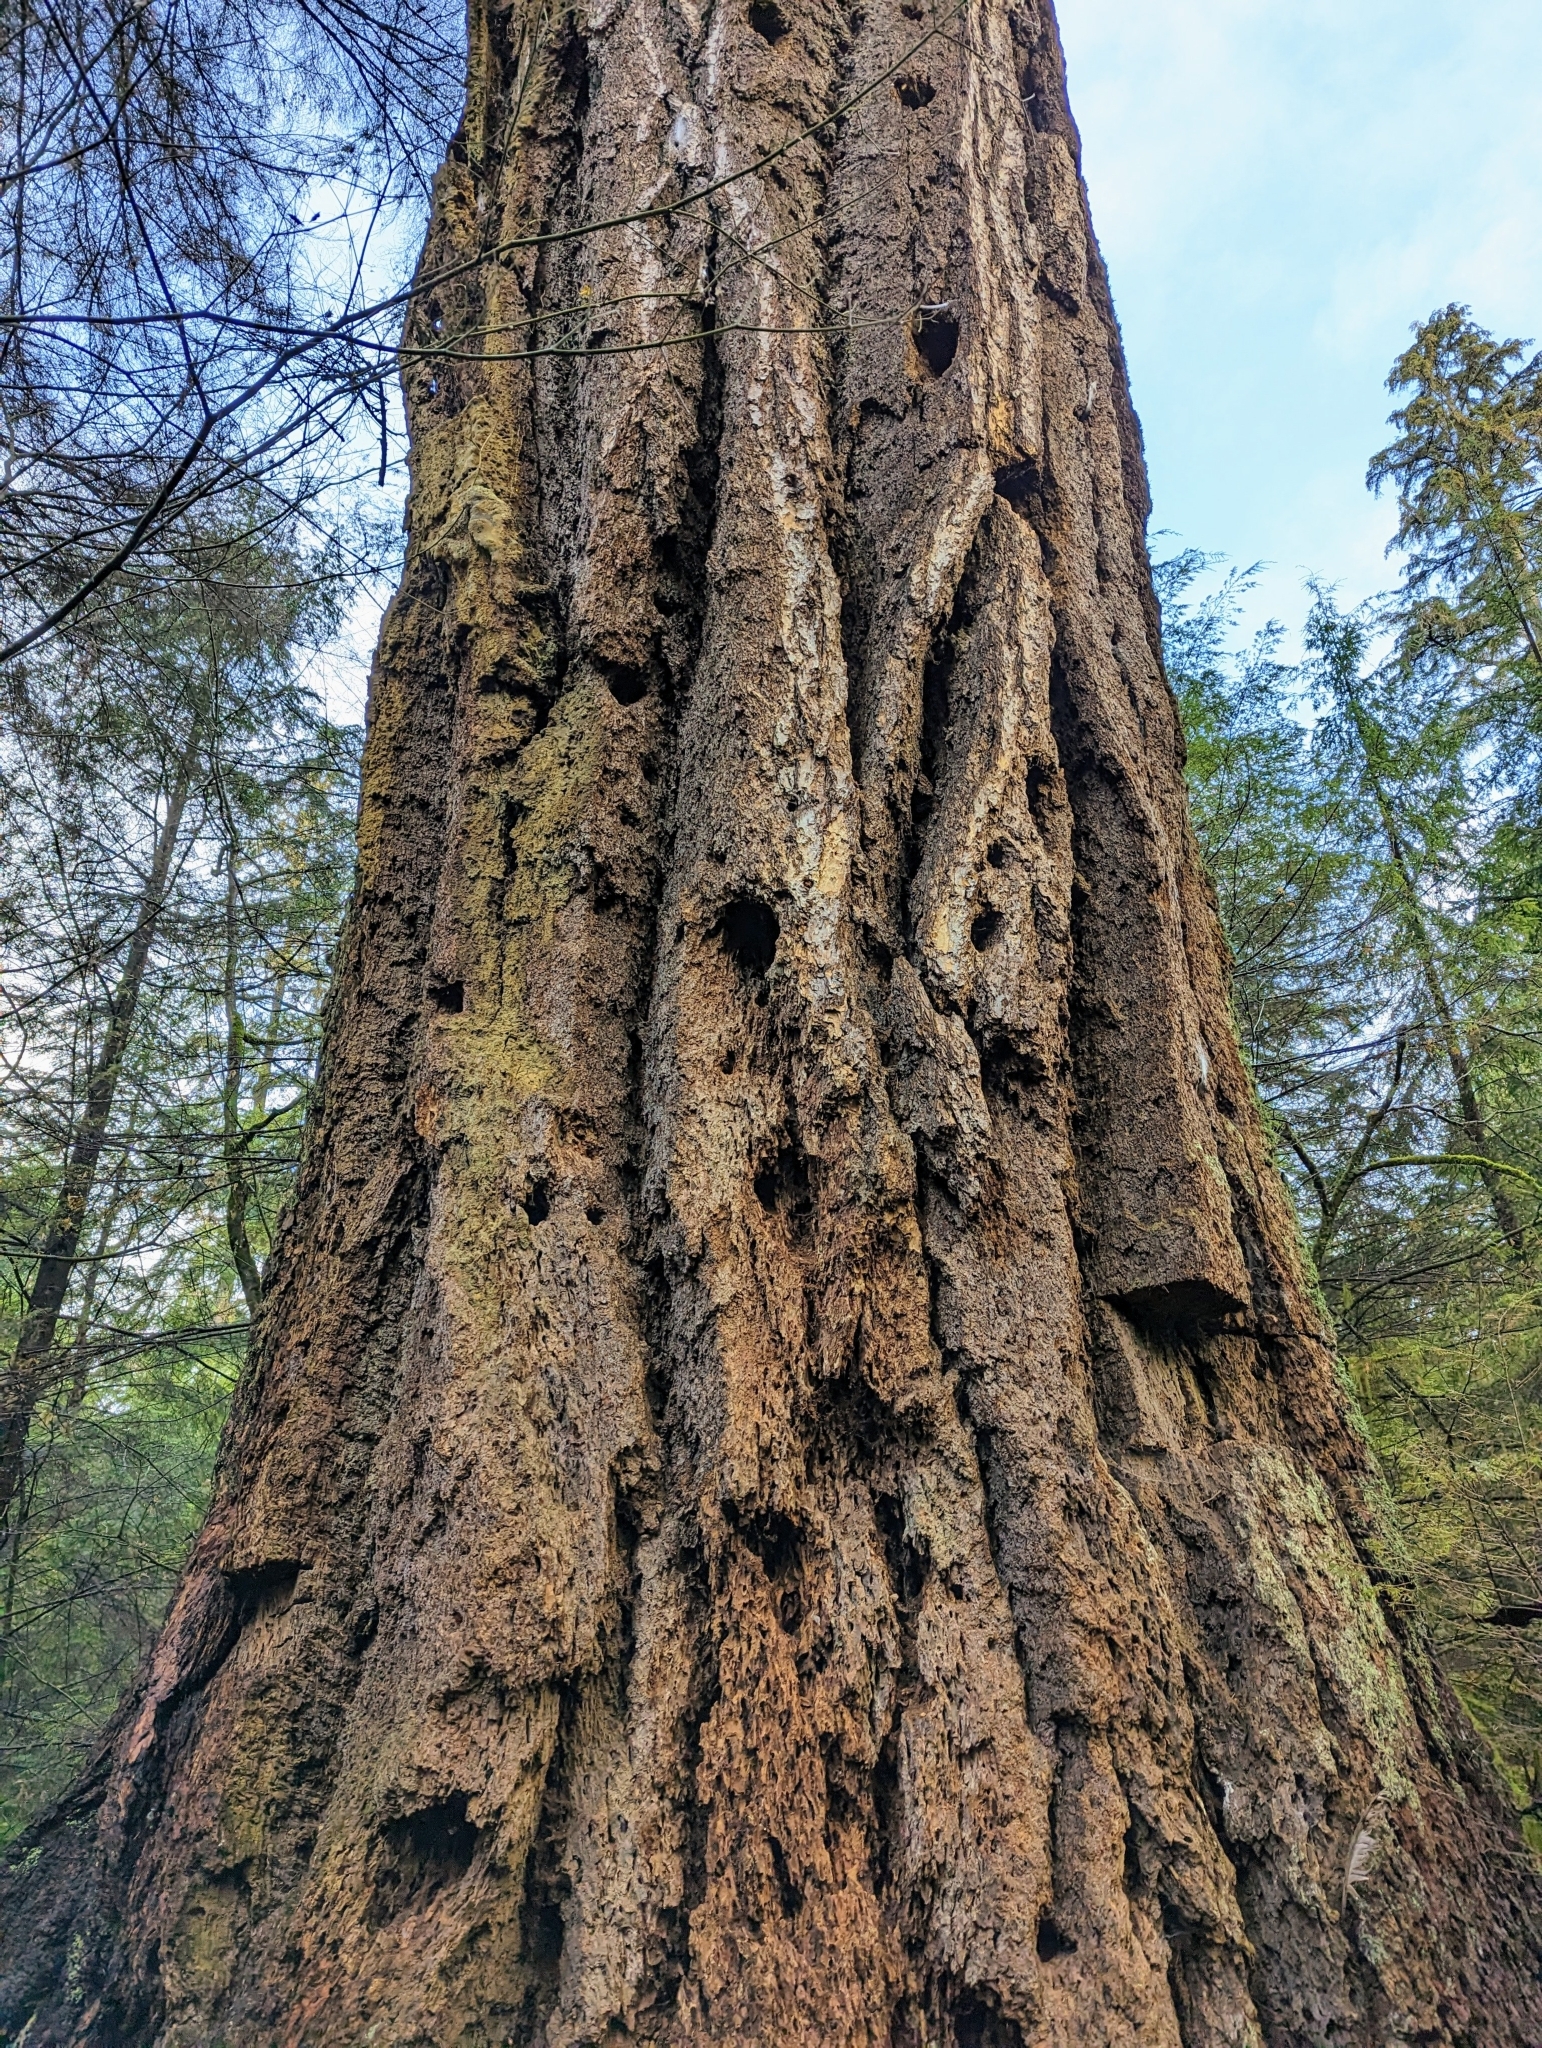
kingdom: Plantae
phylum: Tracheophyta
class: Pinopsida
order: Pinales
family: Pinaceae
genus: Pseudotsuga
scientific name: Pseudotsuga menziesii
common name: Douglas fir
